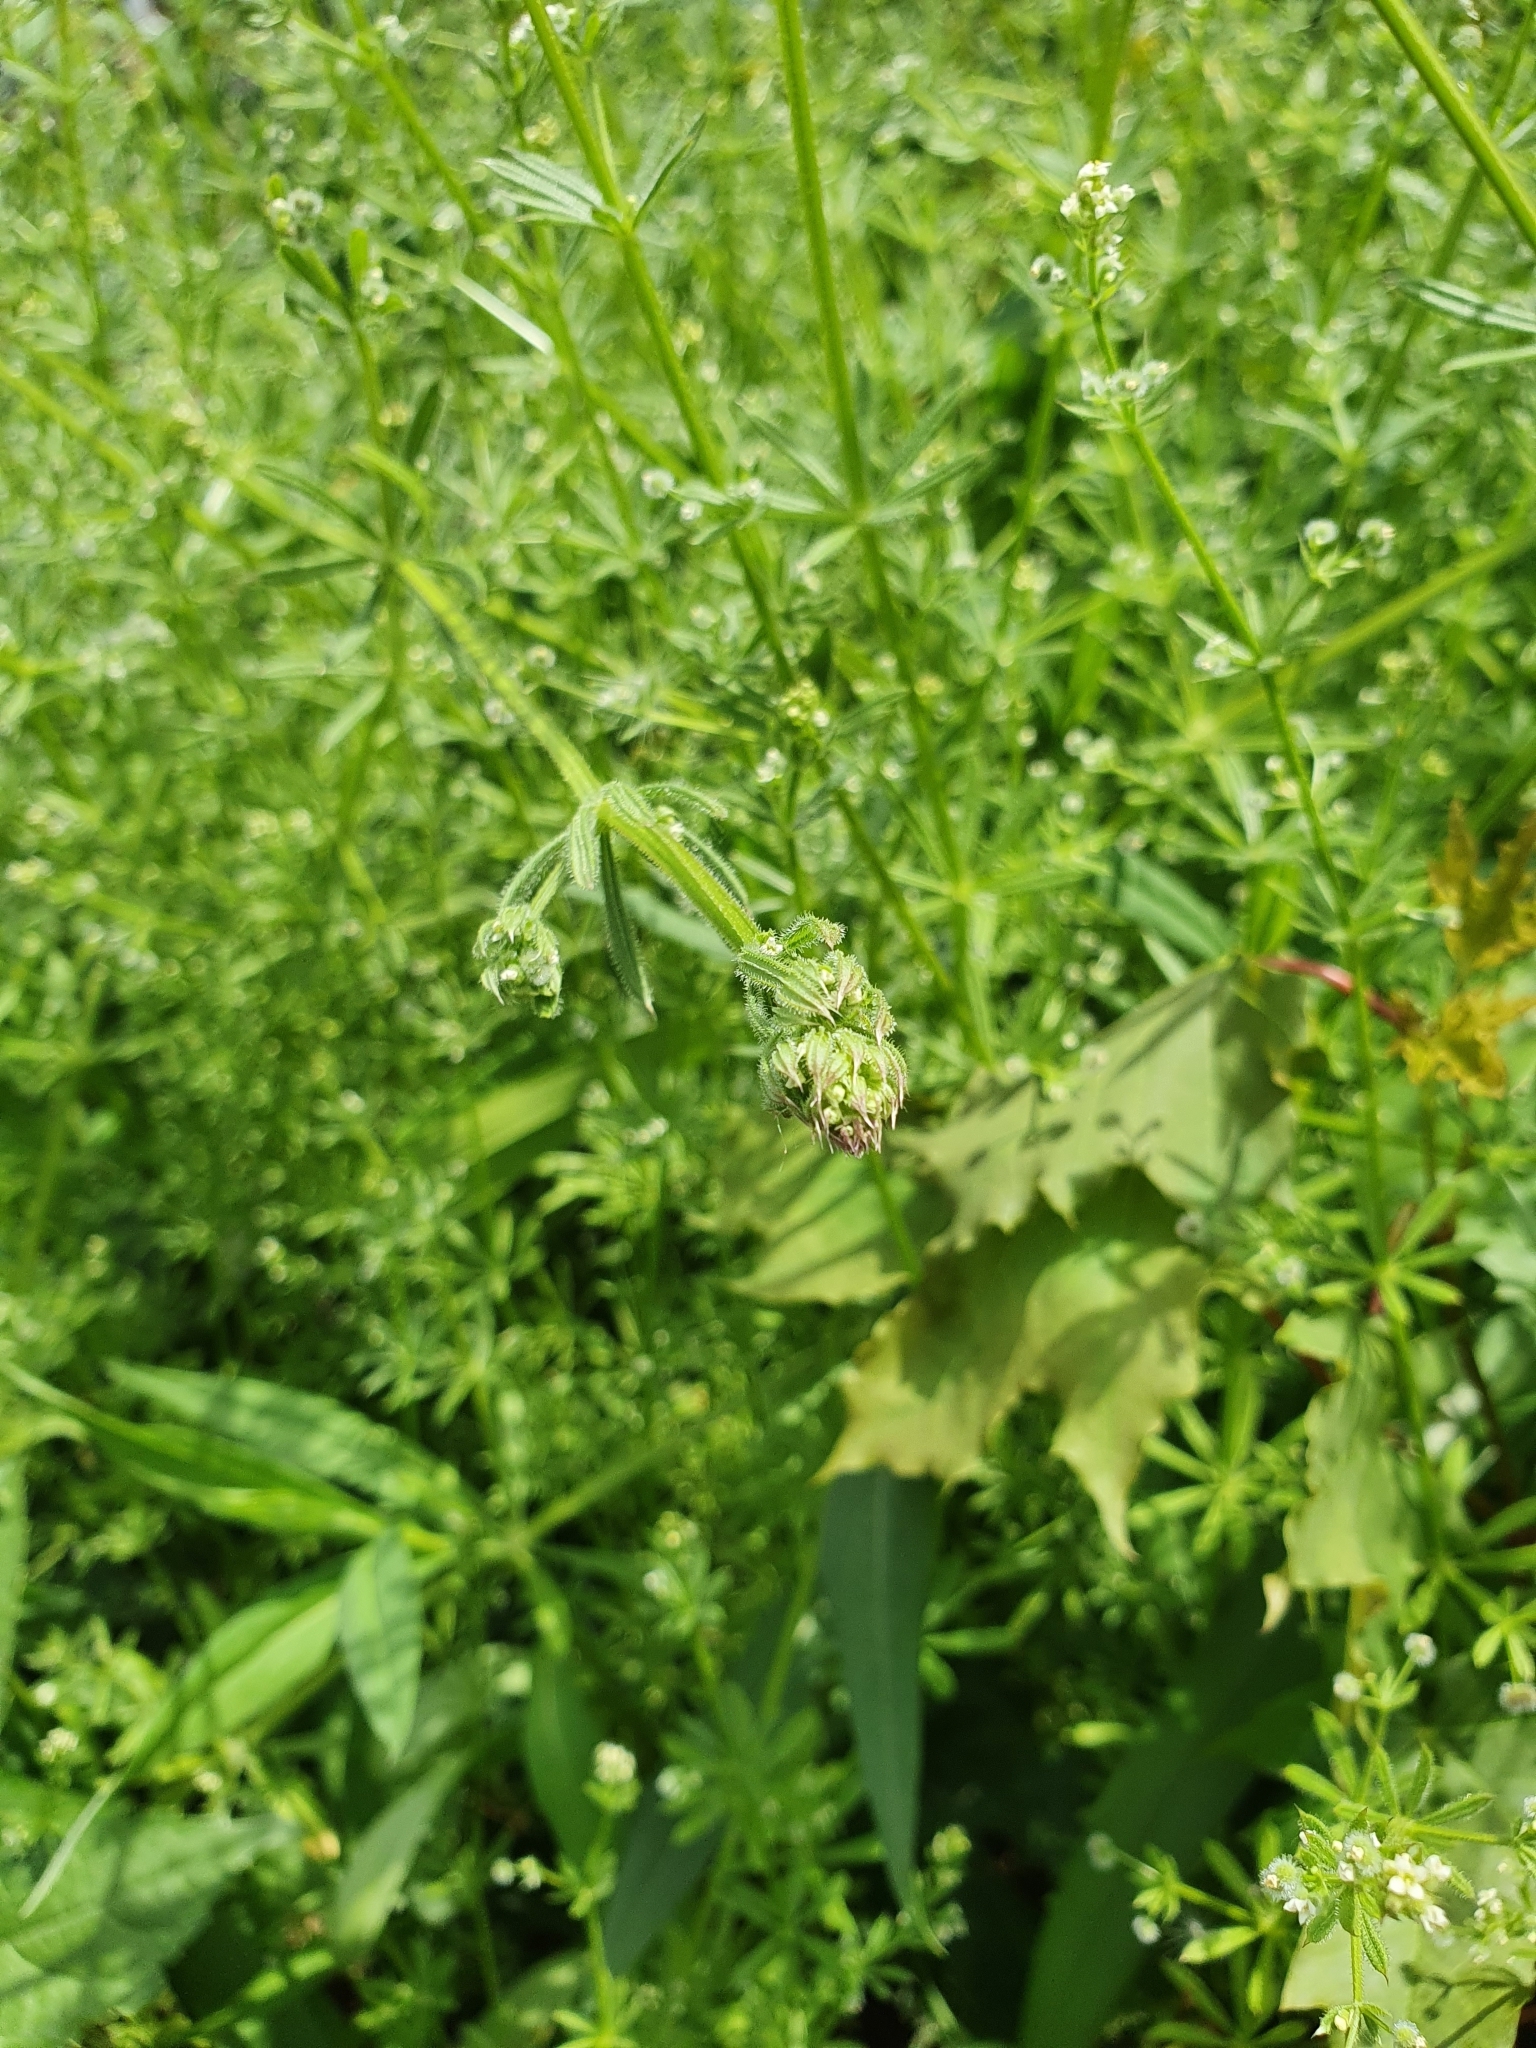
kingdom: Plantae
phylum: Tracheophyta
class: Magnoliopsida
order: Gentianales
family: Rubiaceae
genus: Galium
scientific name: Galium aparine
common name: Cleavers
